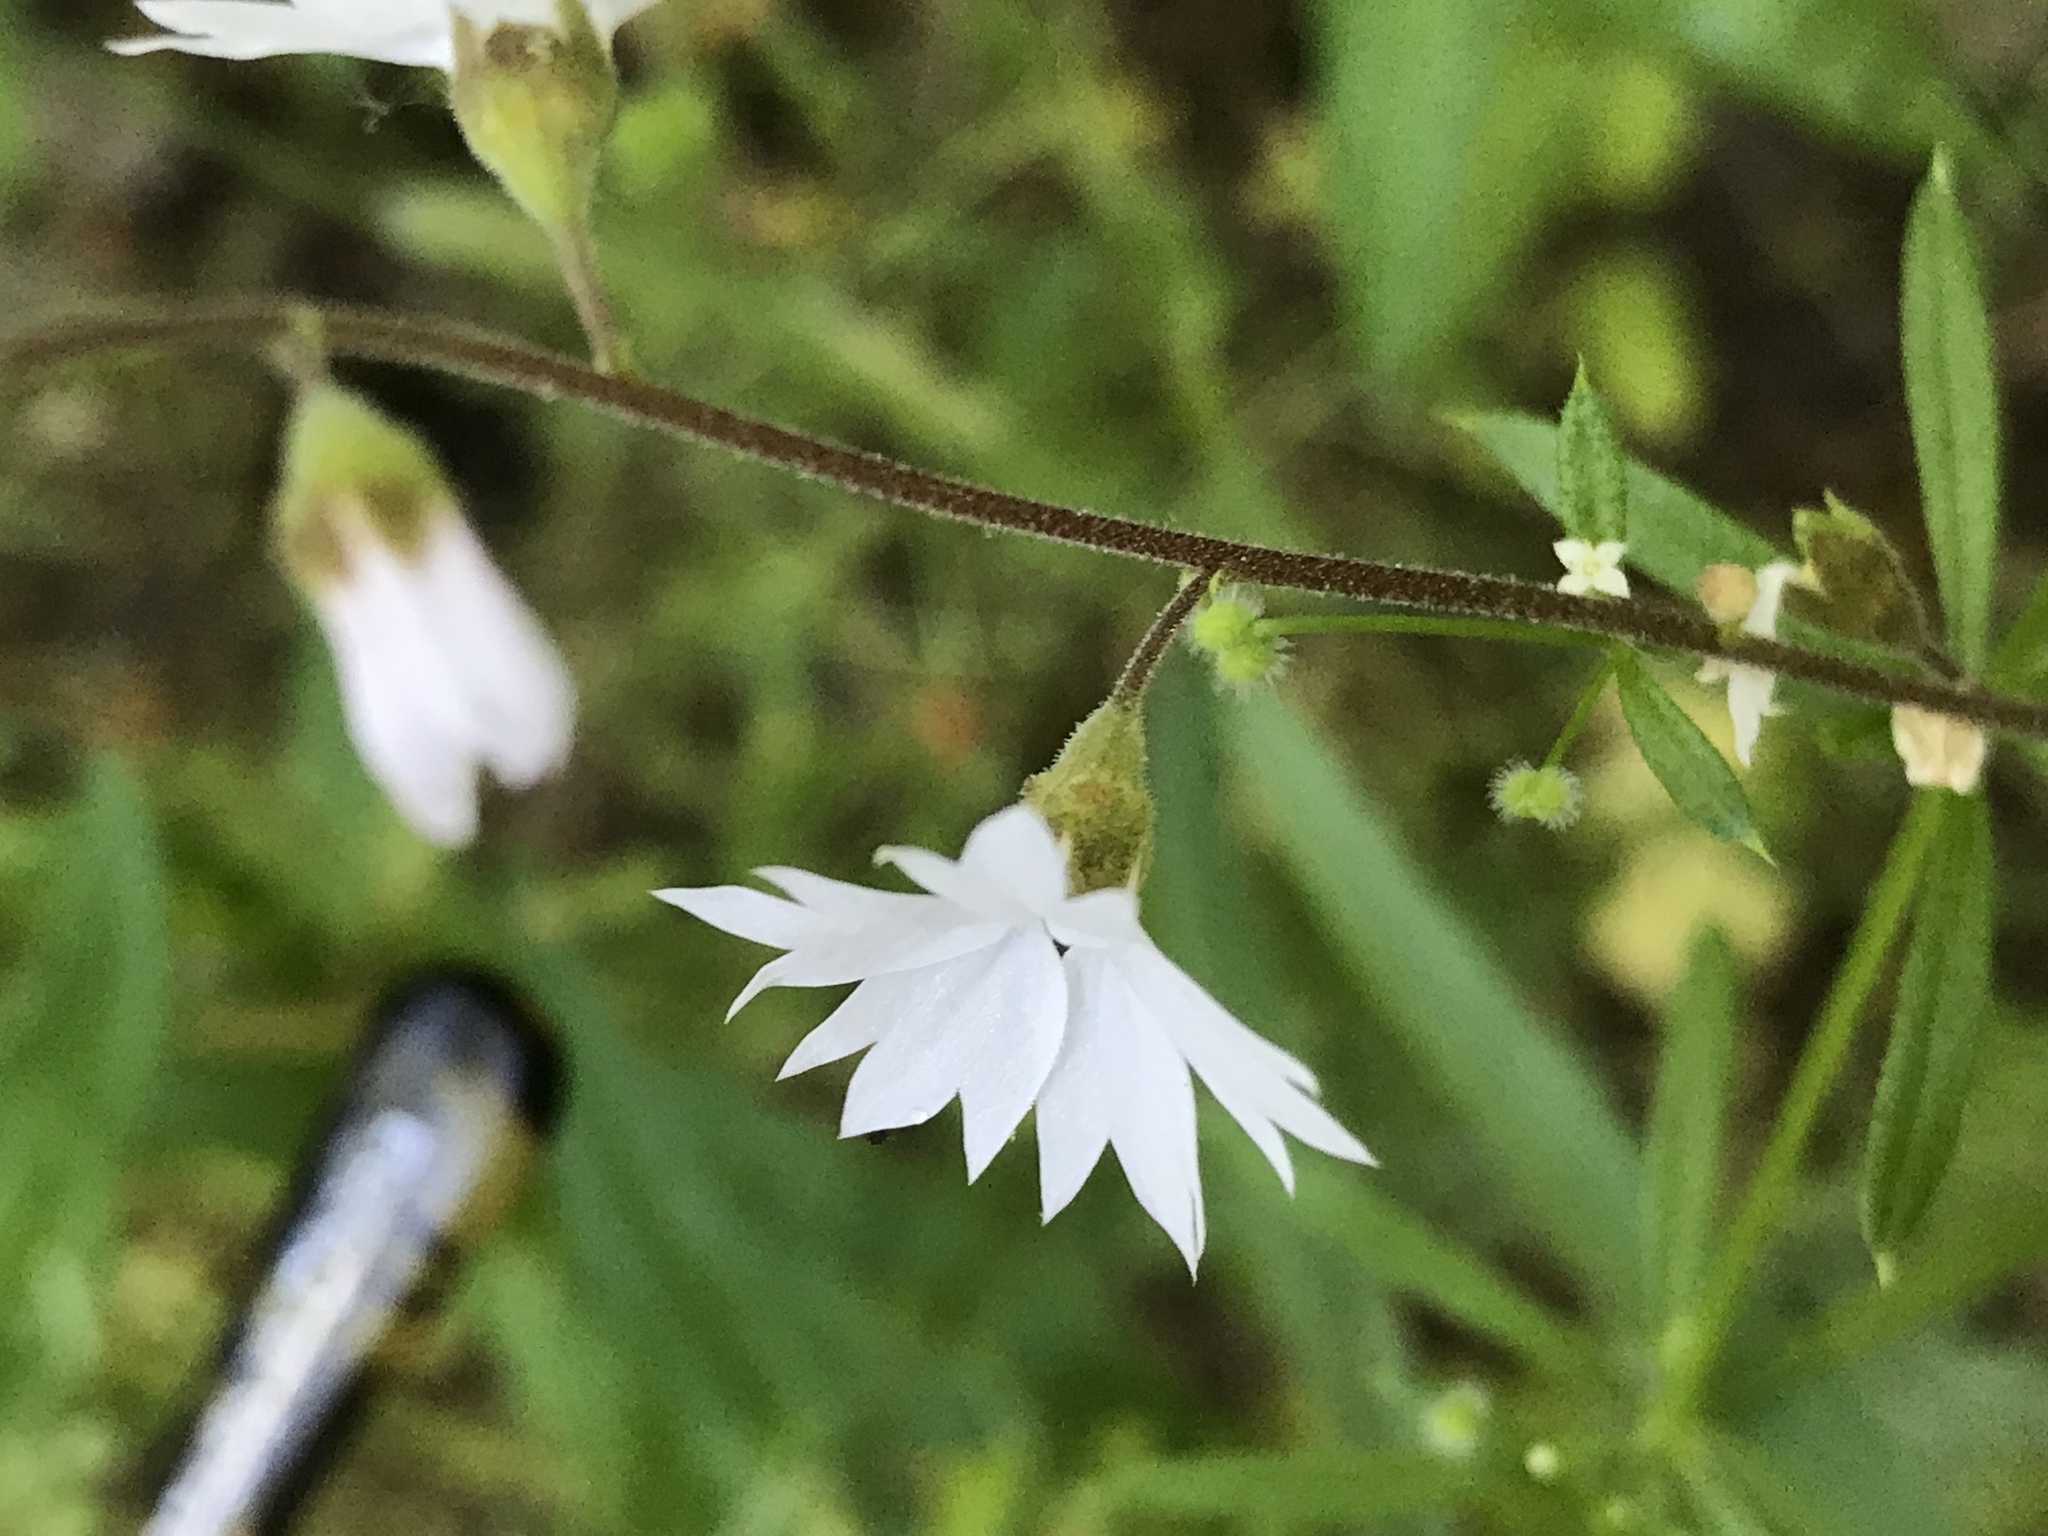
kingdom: Plantae
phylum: Tracheophyta
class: Magnoliopsida
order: Saxifragales
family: Saxifragaceae
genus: Lithophragma
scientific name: Lithophragma affine
